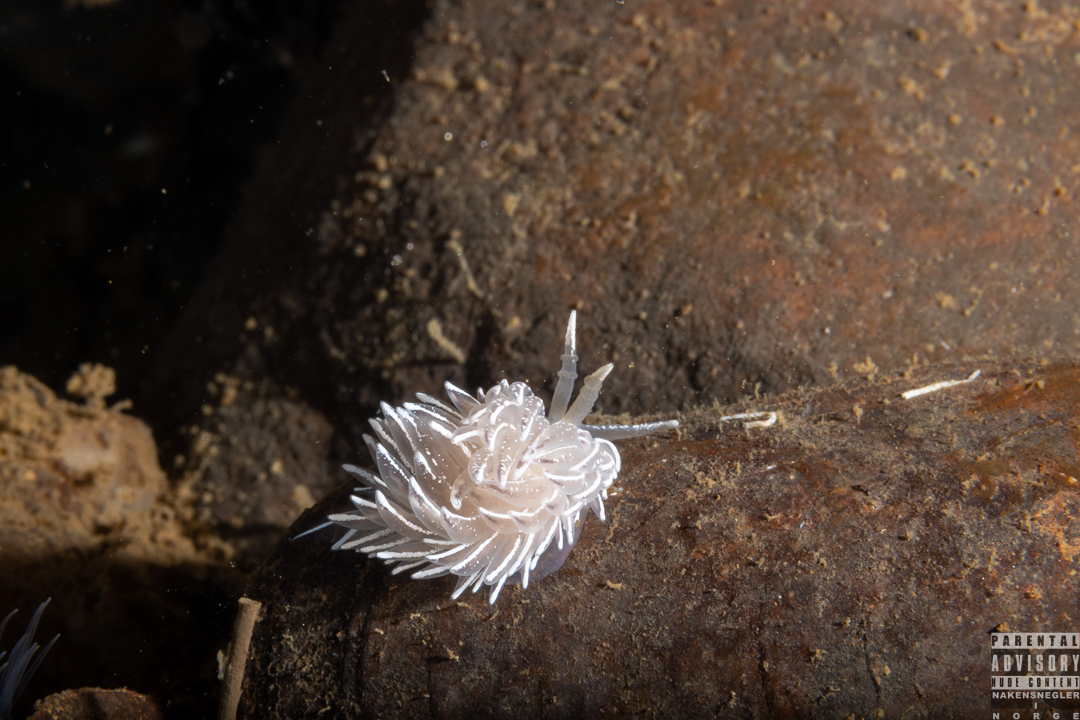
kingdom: Animalia
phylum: Mollusca
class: Gastropoda
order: Nudibranchia
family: Facelinidae
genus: Favorinus
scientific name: Favorinus blianus
